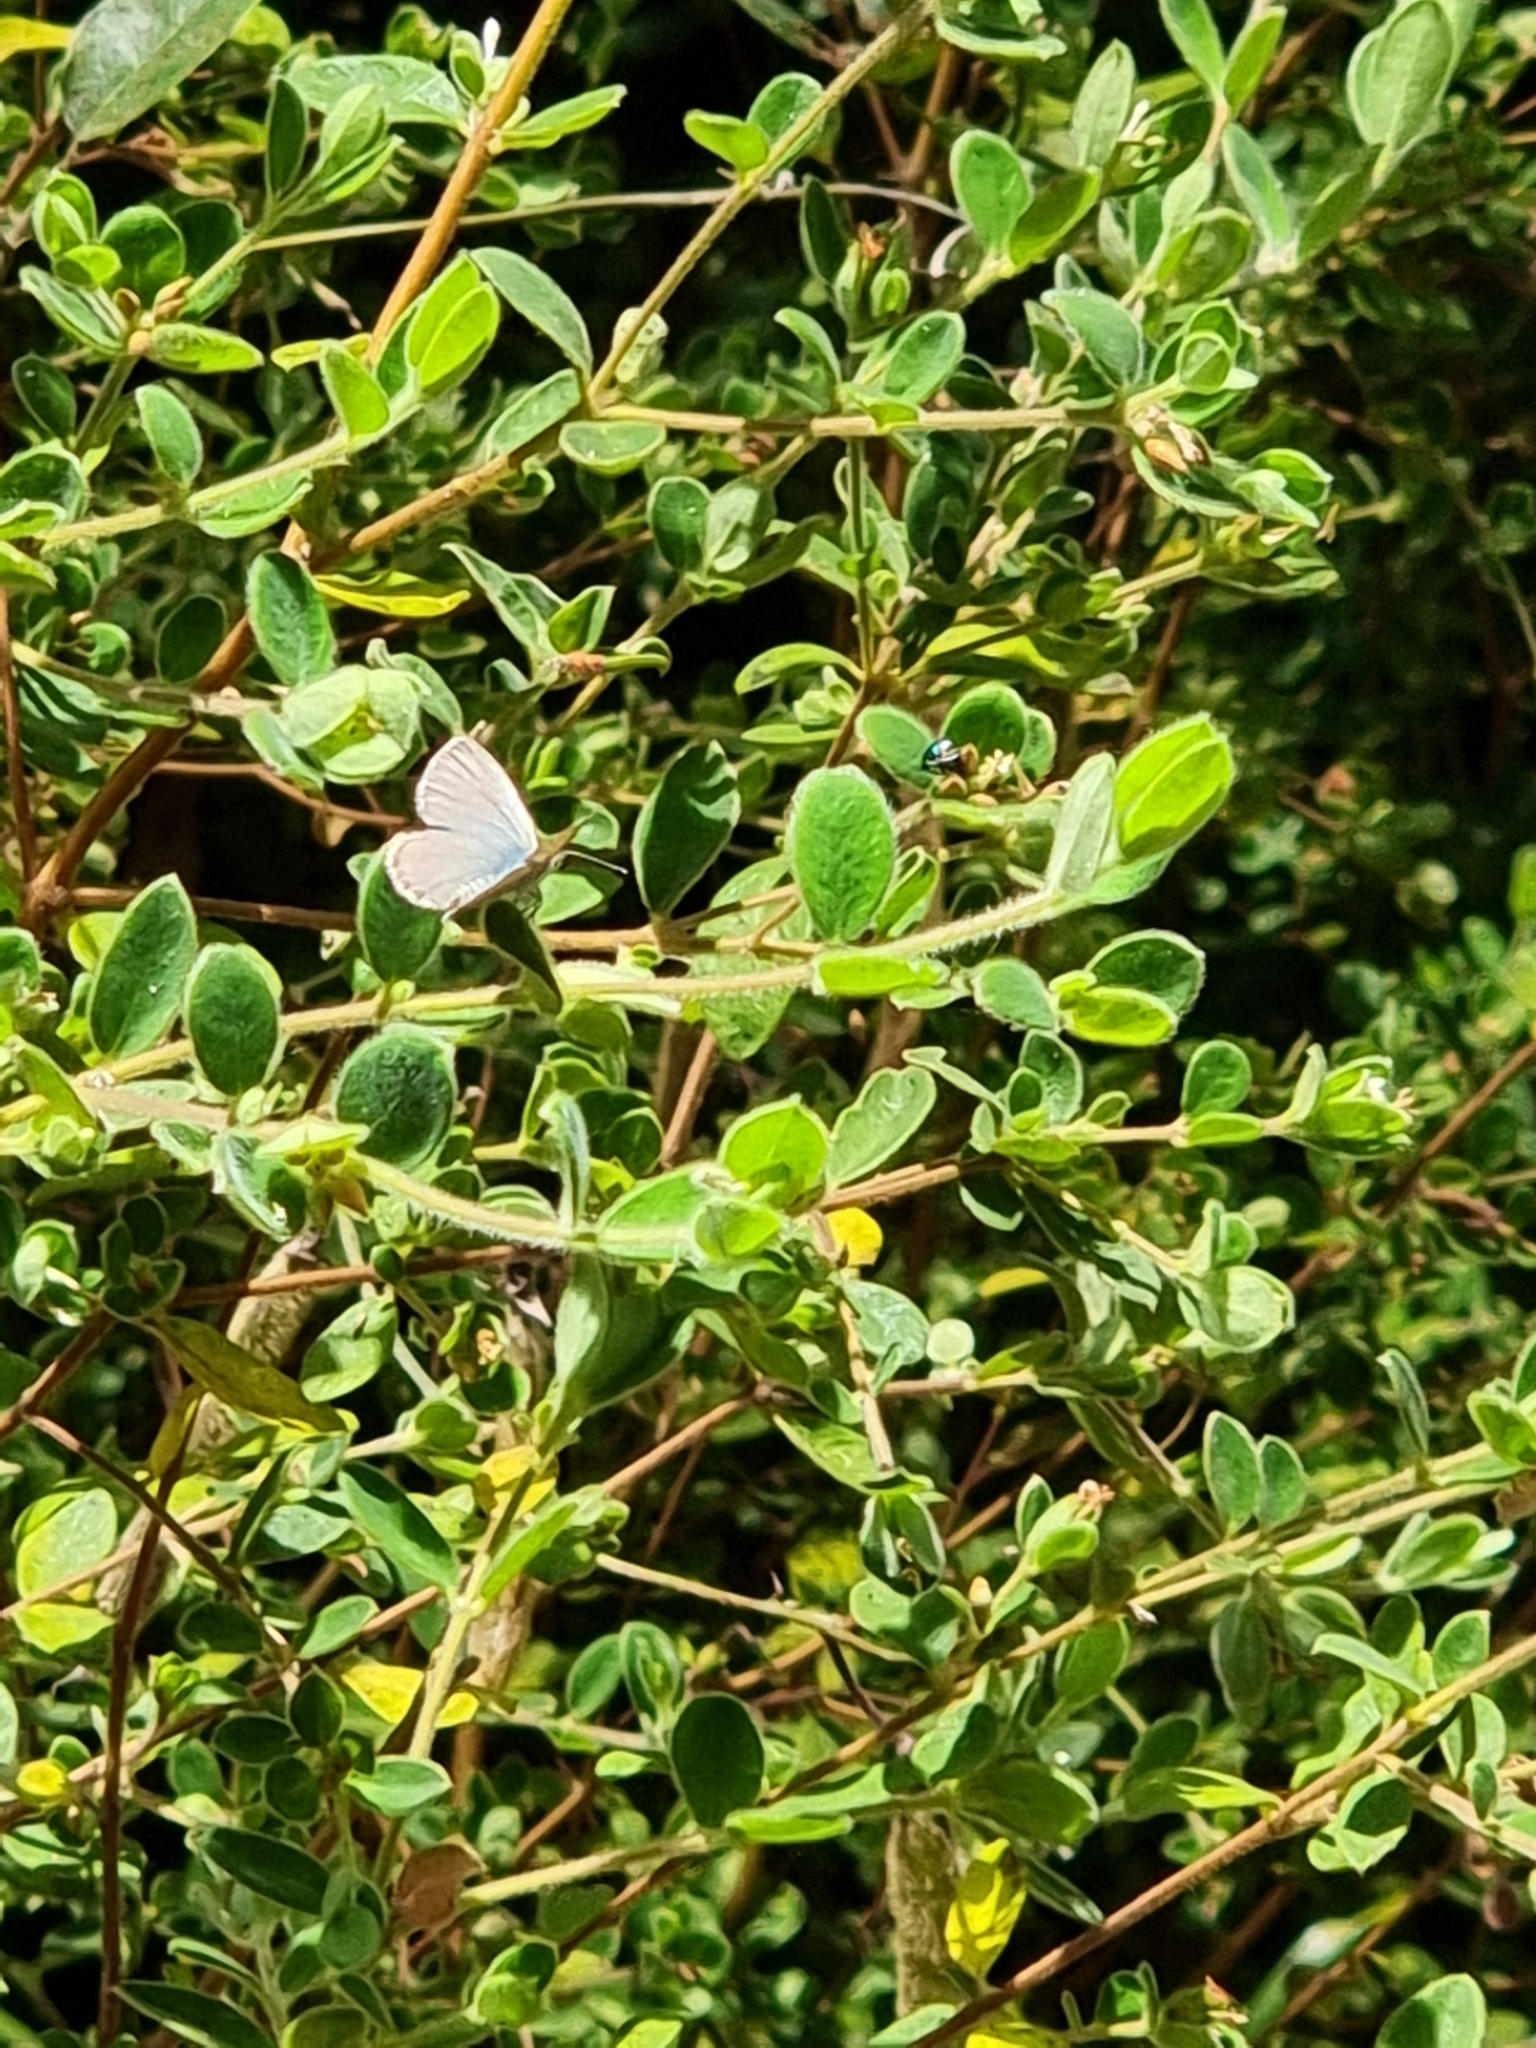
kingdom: Animalia
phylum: Arthropoda
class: Insecta
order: Lepidoptera
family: Lycaenidae
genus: Zizina
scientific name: Zizina labradus
